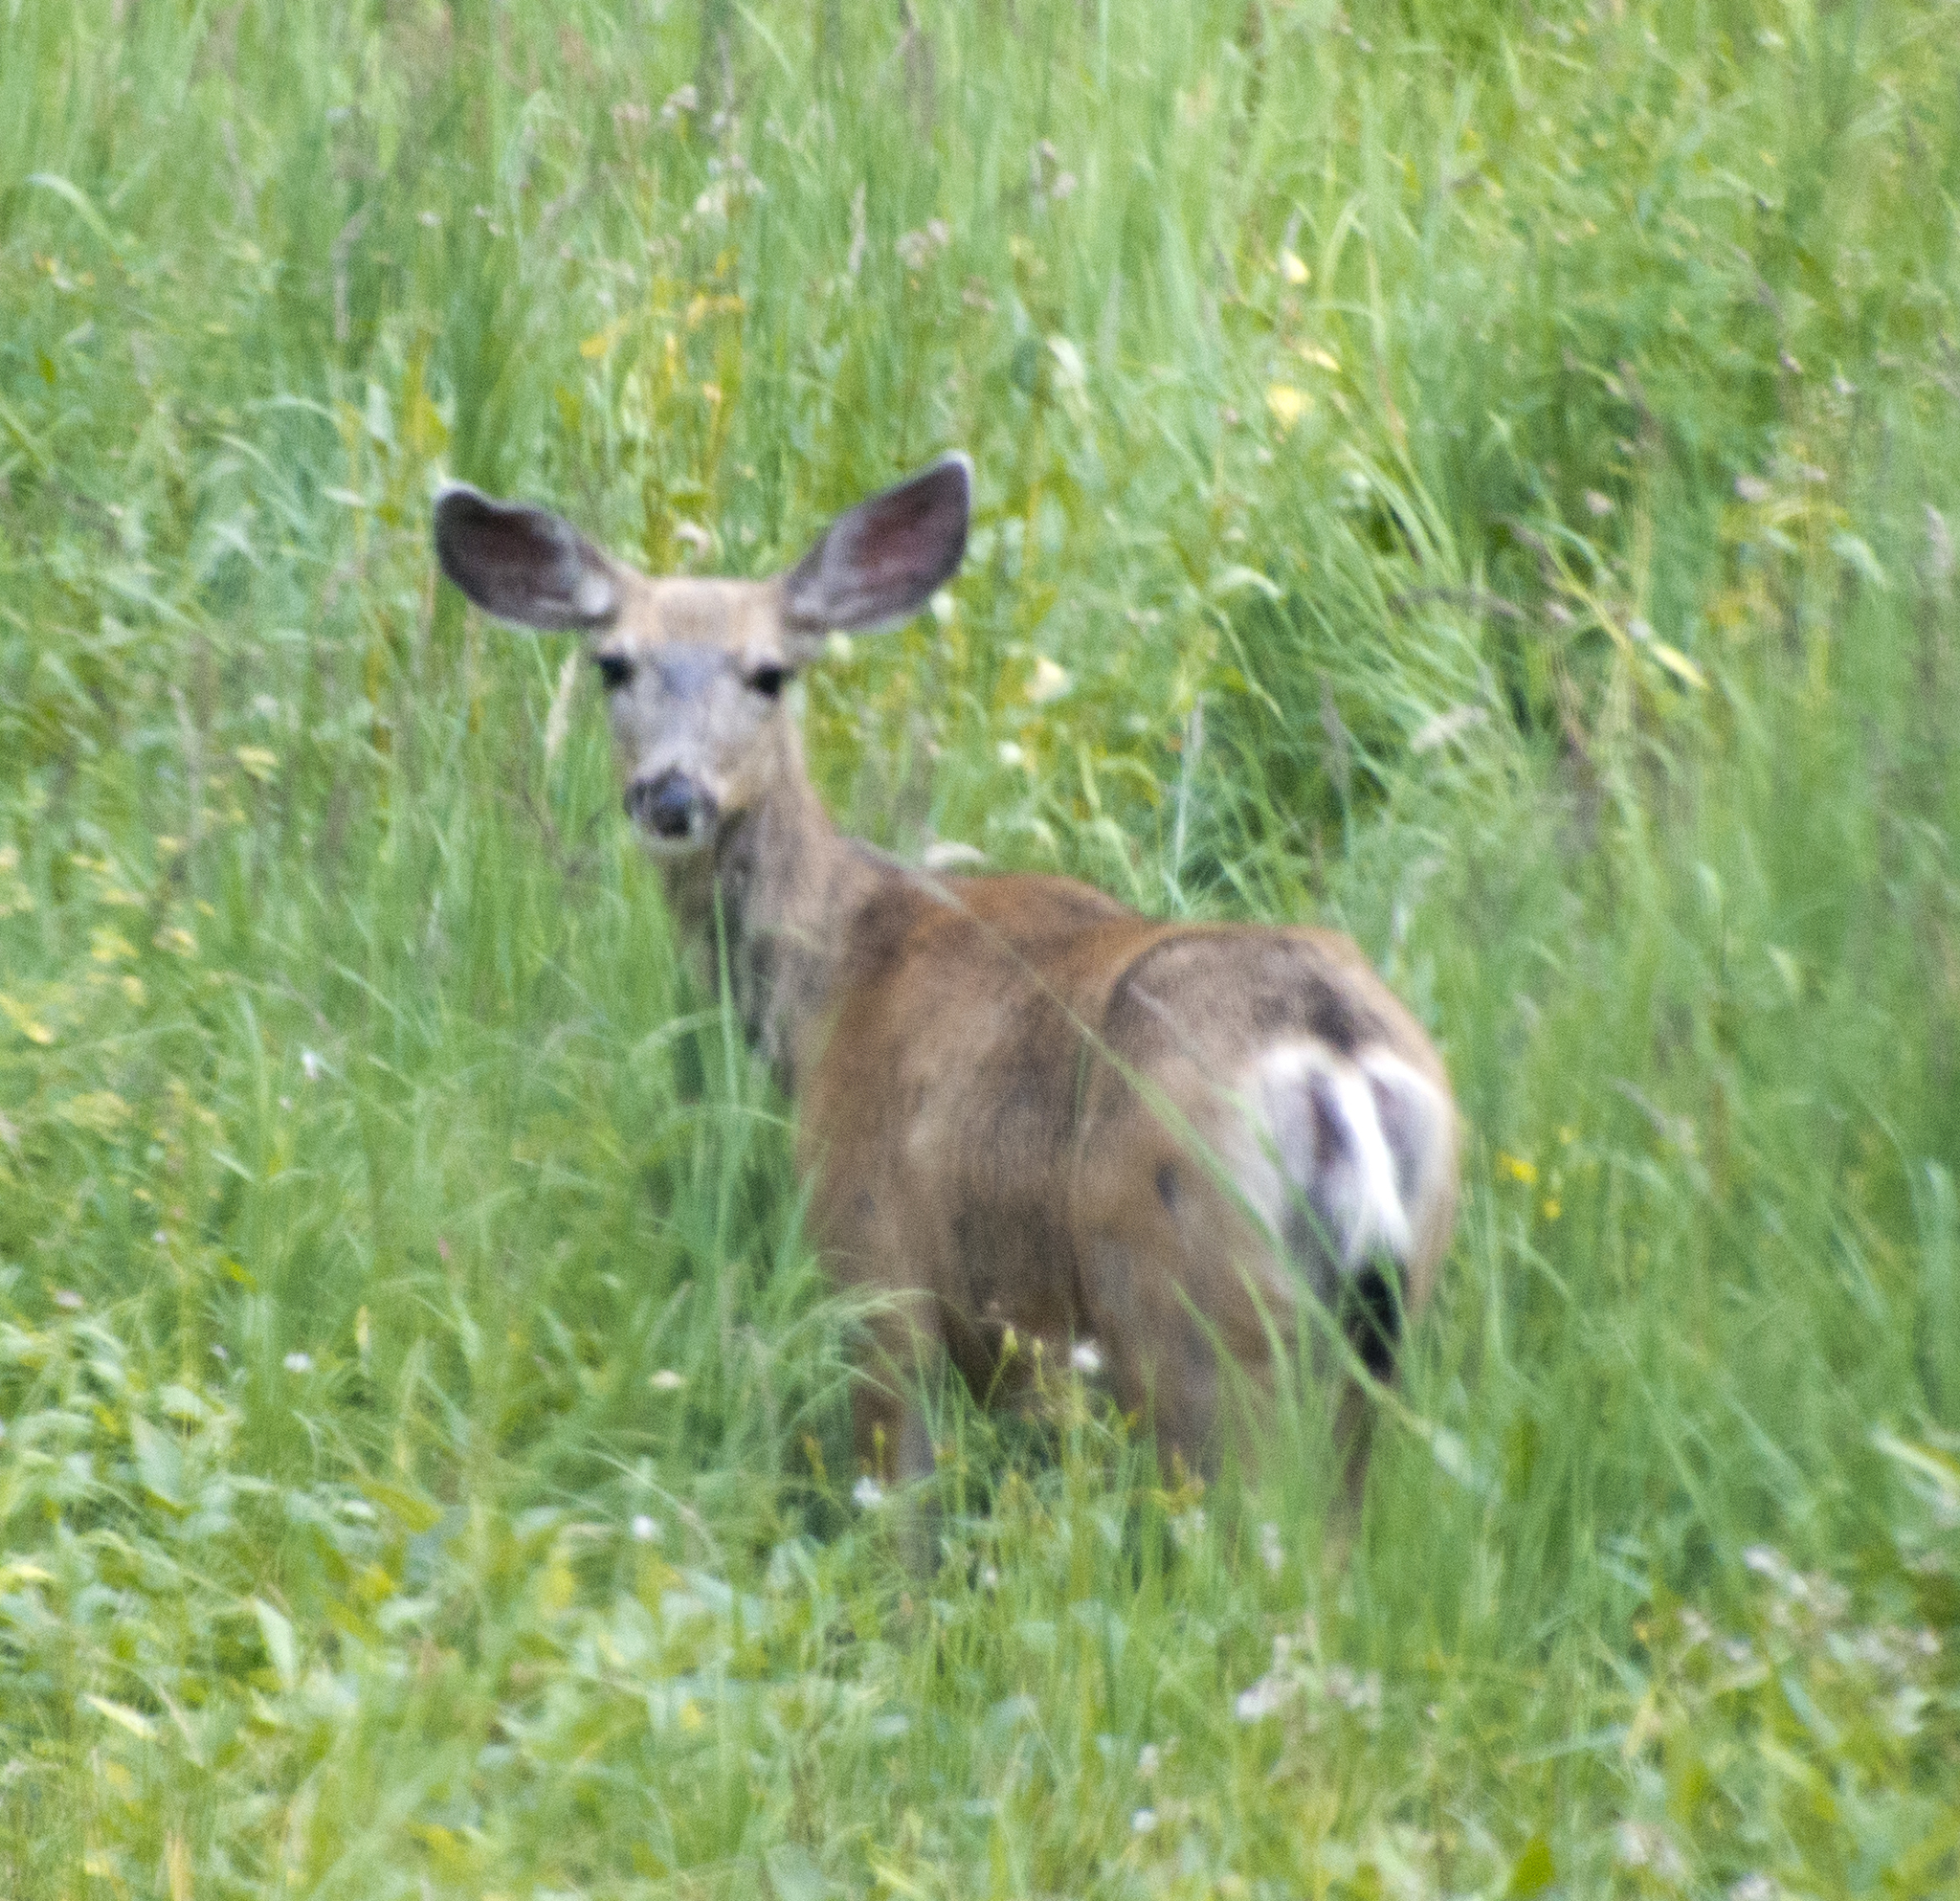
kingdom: Animalia
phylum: Chordata
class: Mammalia
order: Artiodactyla
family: Cervidae
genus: Odocoileus
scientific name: Odocoileus hemionus
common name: Mule deer
